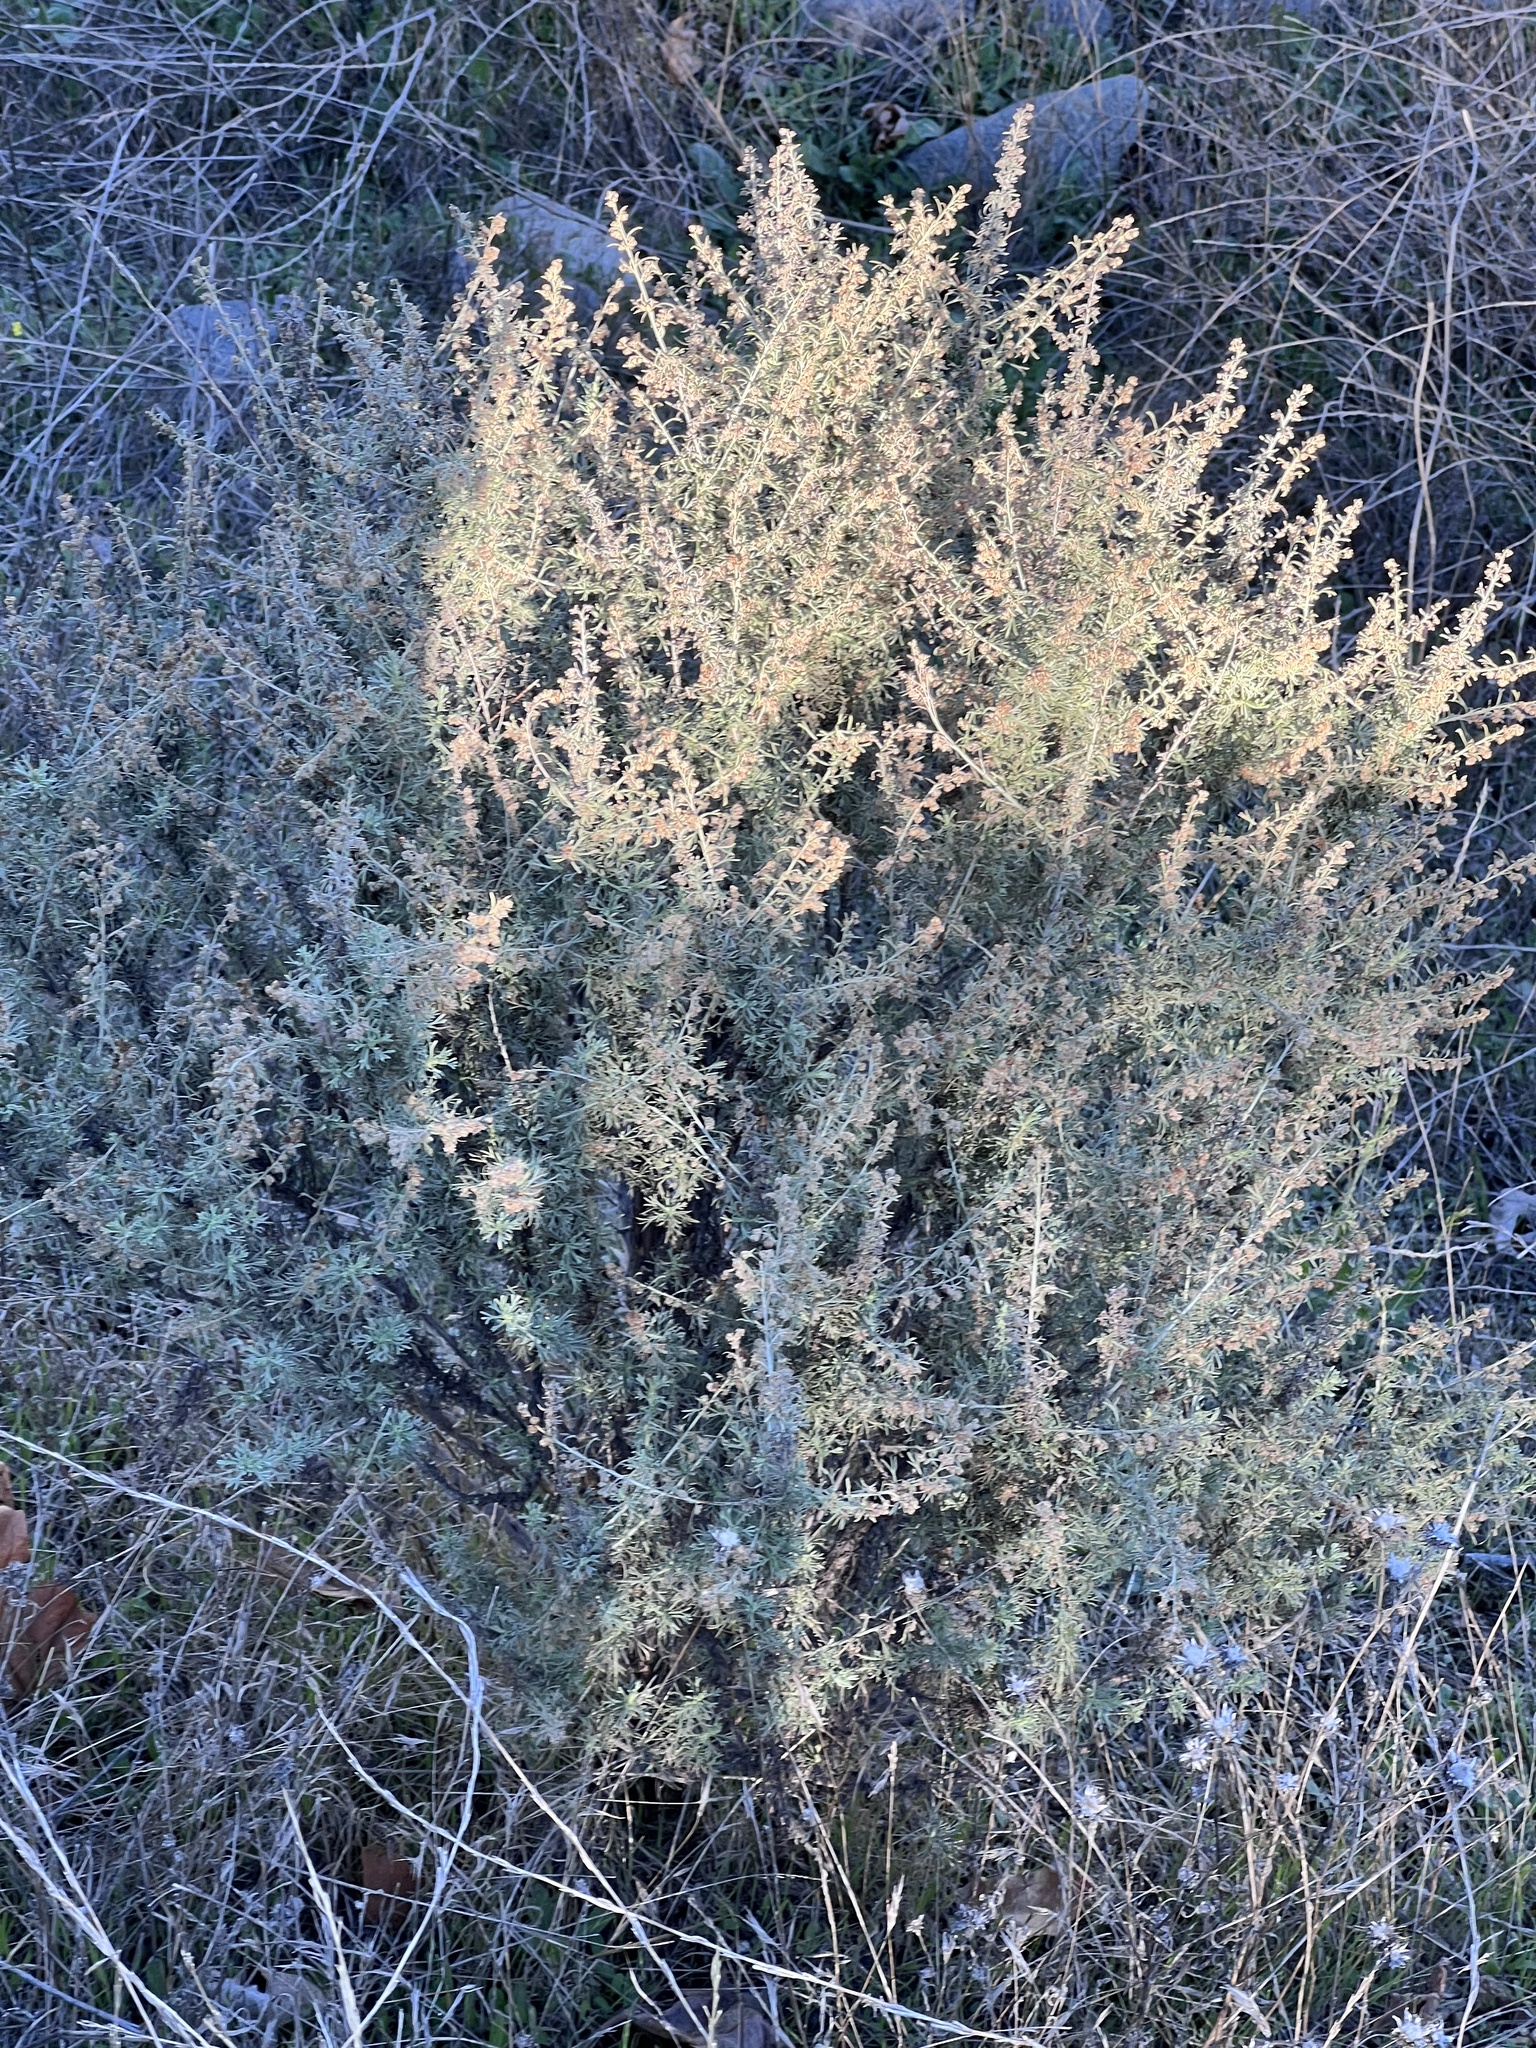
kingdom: Plantae
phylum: Tracheophyta
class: Magnoliopsida
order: Asterales
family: Asteraceae
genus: Artemisia
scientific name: Artemisia californica
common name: California sagebrush
